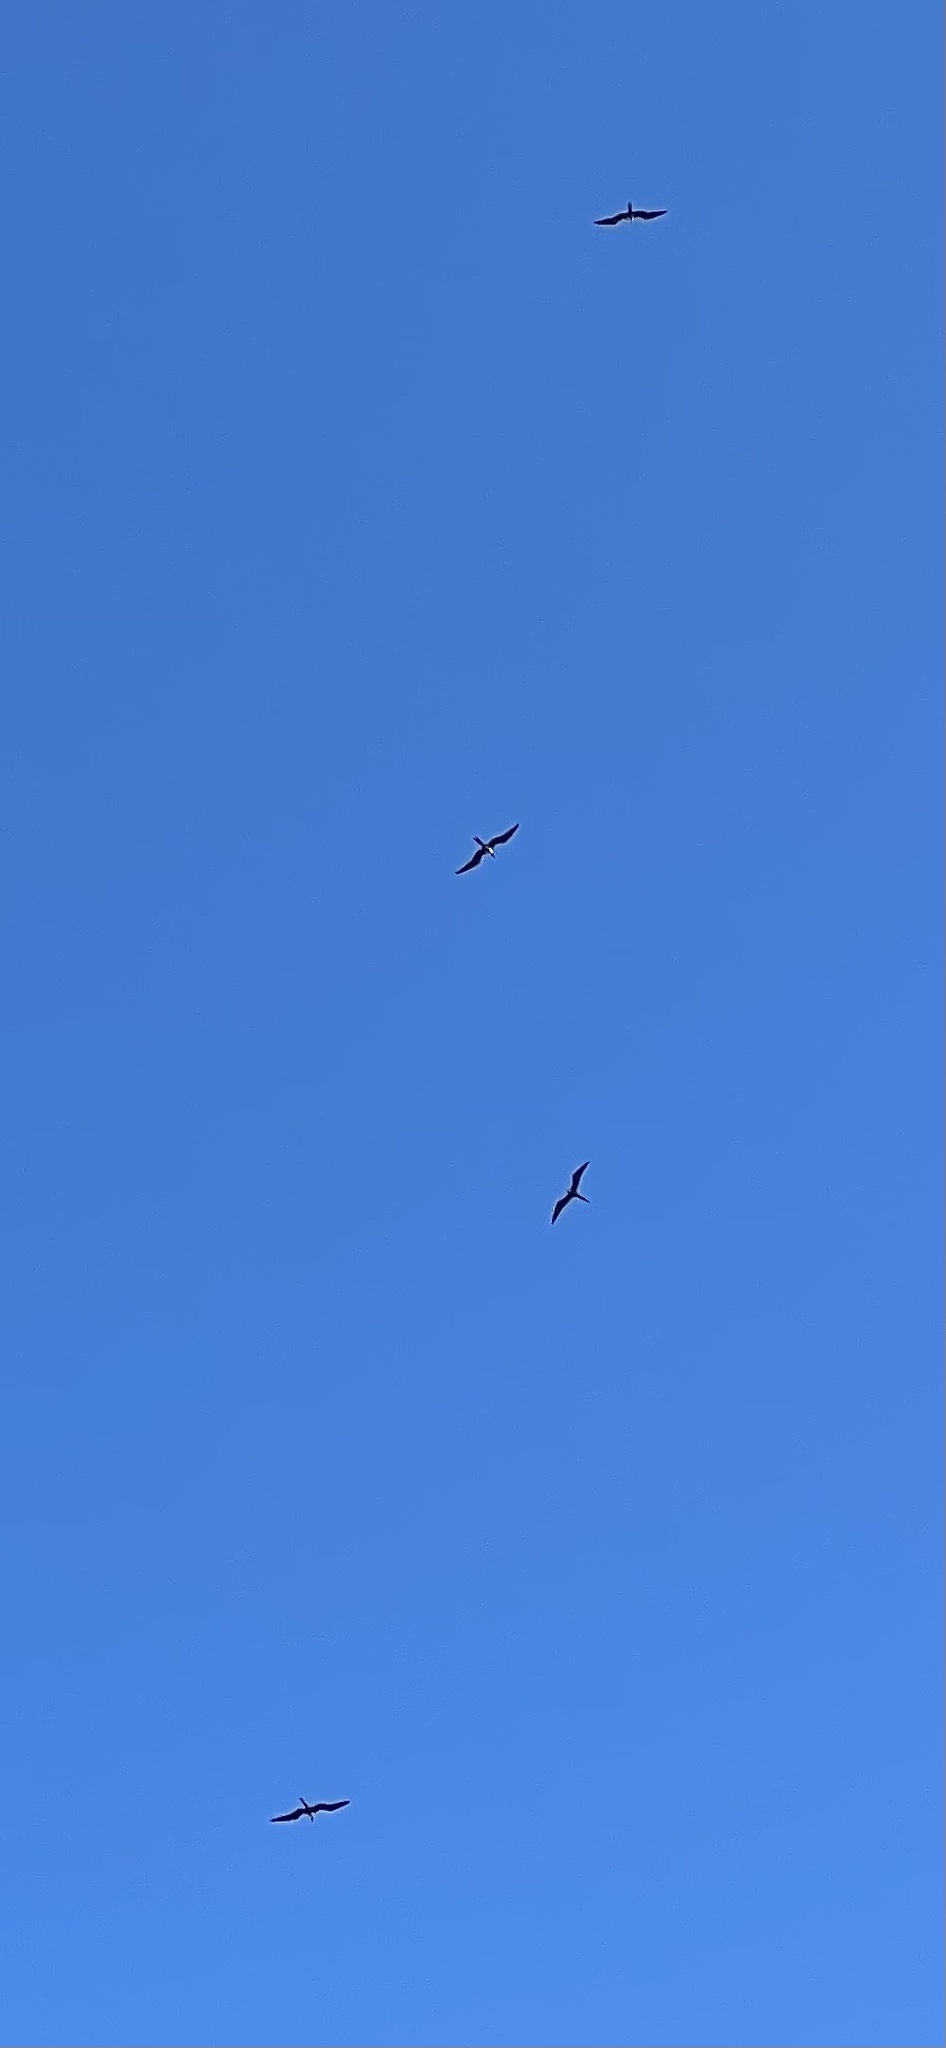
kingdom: Animalia
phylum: Chordata
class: Aves
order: Suliformes
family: Fregatidae
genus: Fregata
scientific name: Fregata magnificens
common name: Magnificent frigatebird
